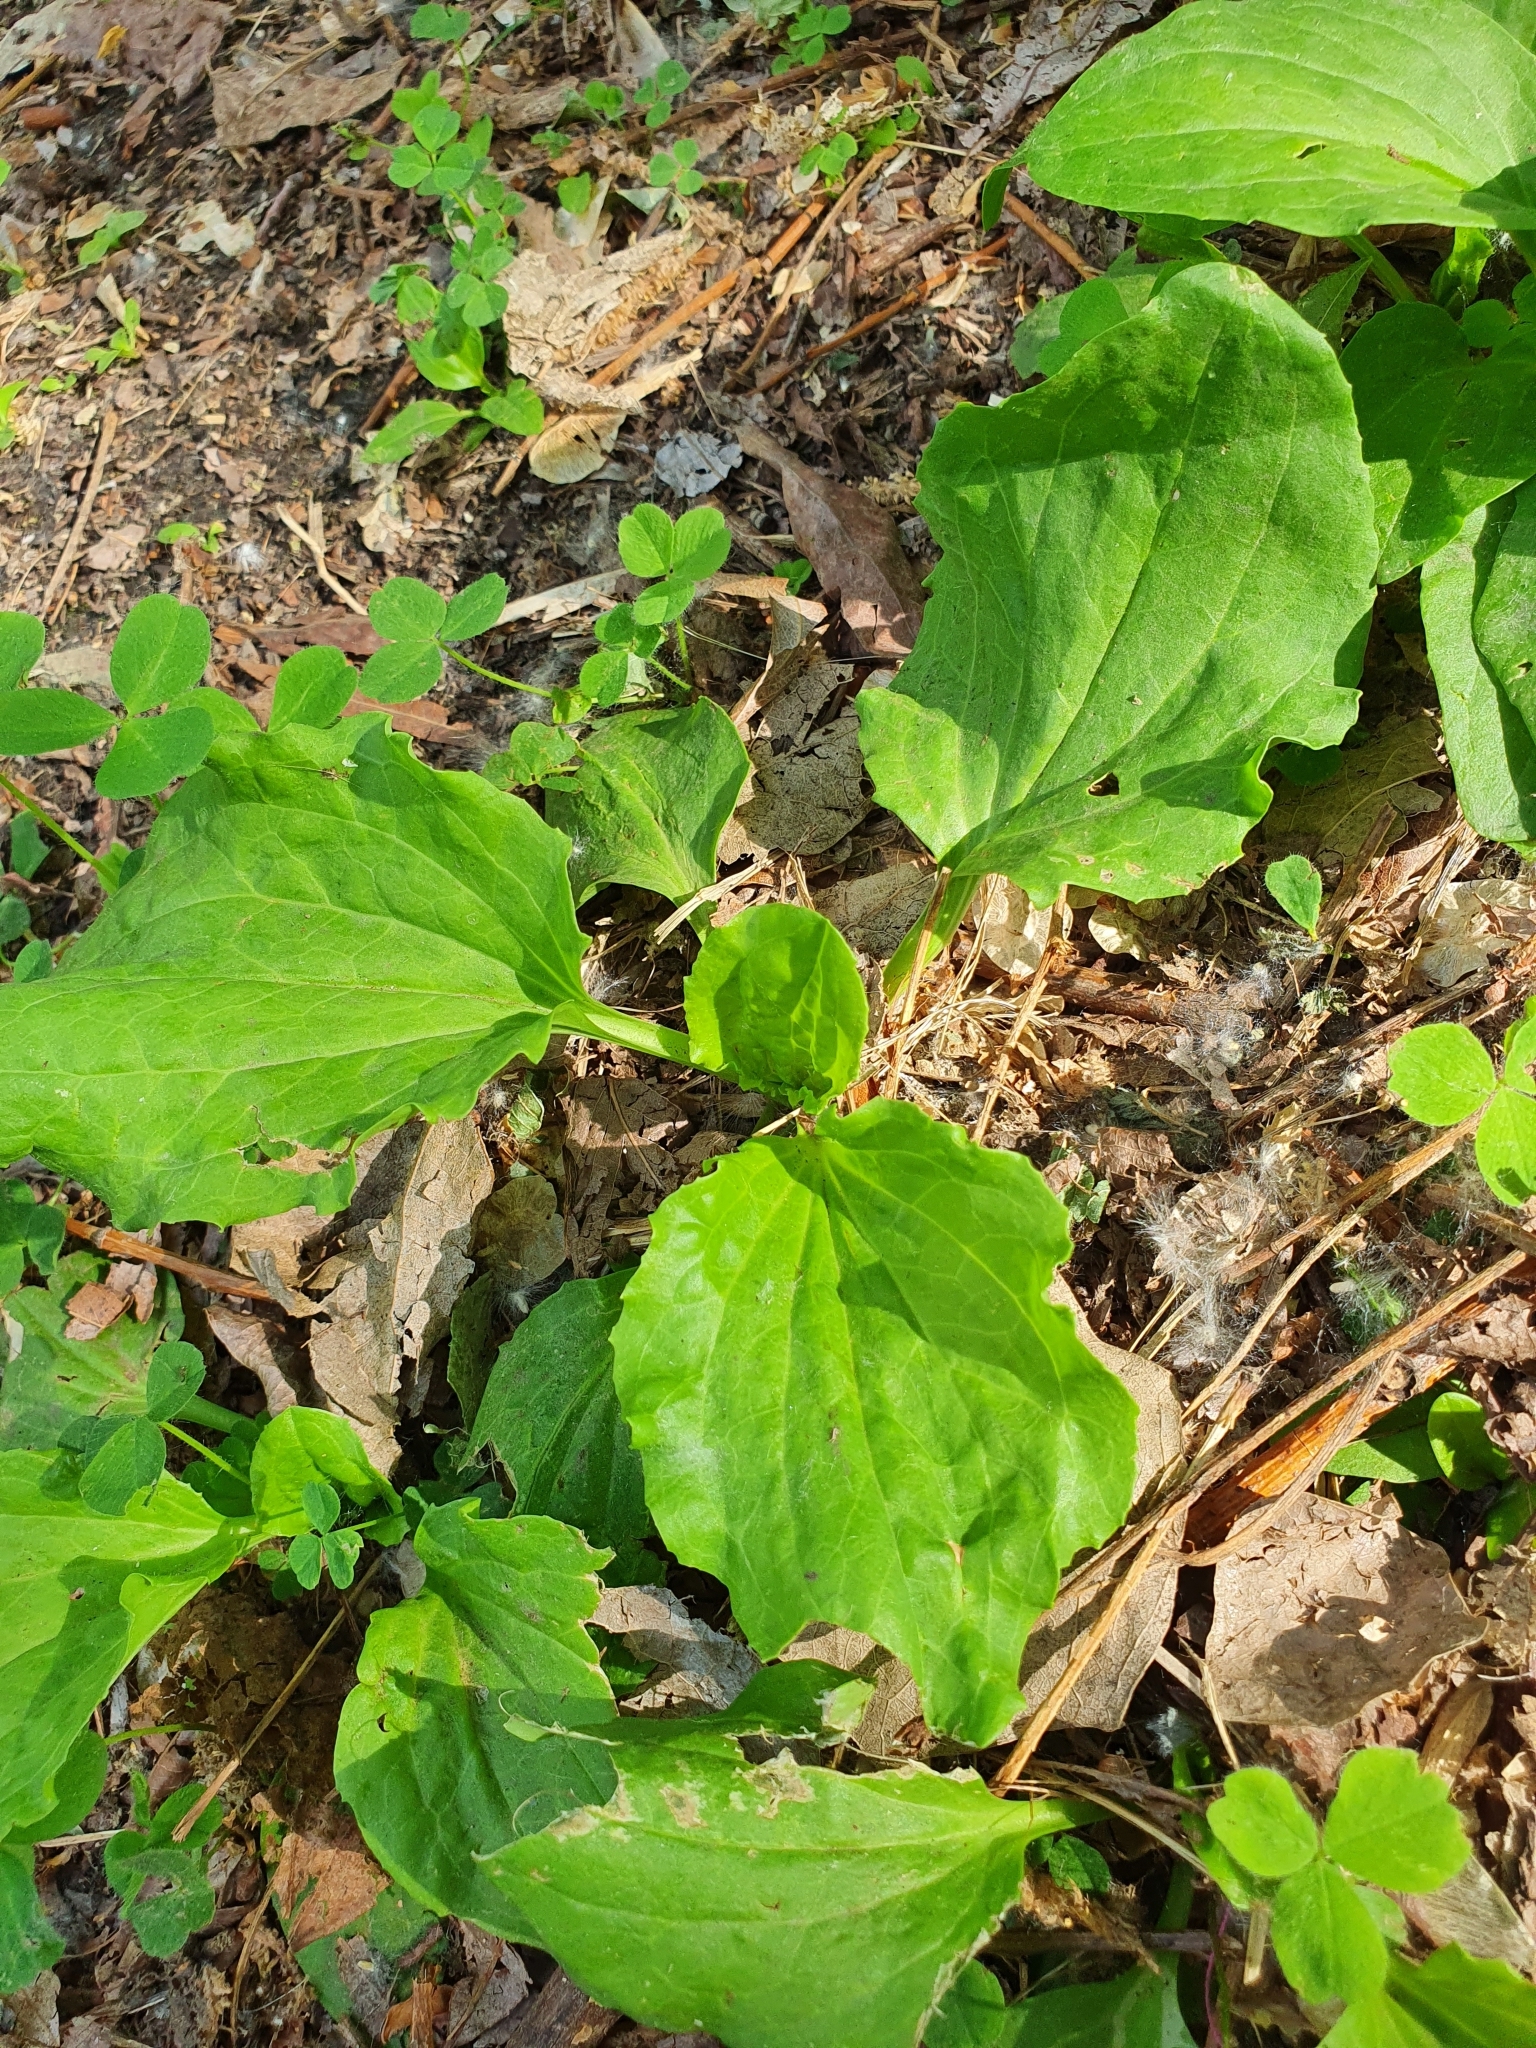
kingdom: Plantae
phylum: Tracheophyta
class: Magnoliopsida
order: Lamiales
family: Plantaginaceae
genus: Plantago
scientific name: Plantago major
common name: Common plantain
